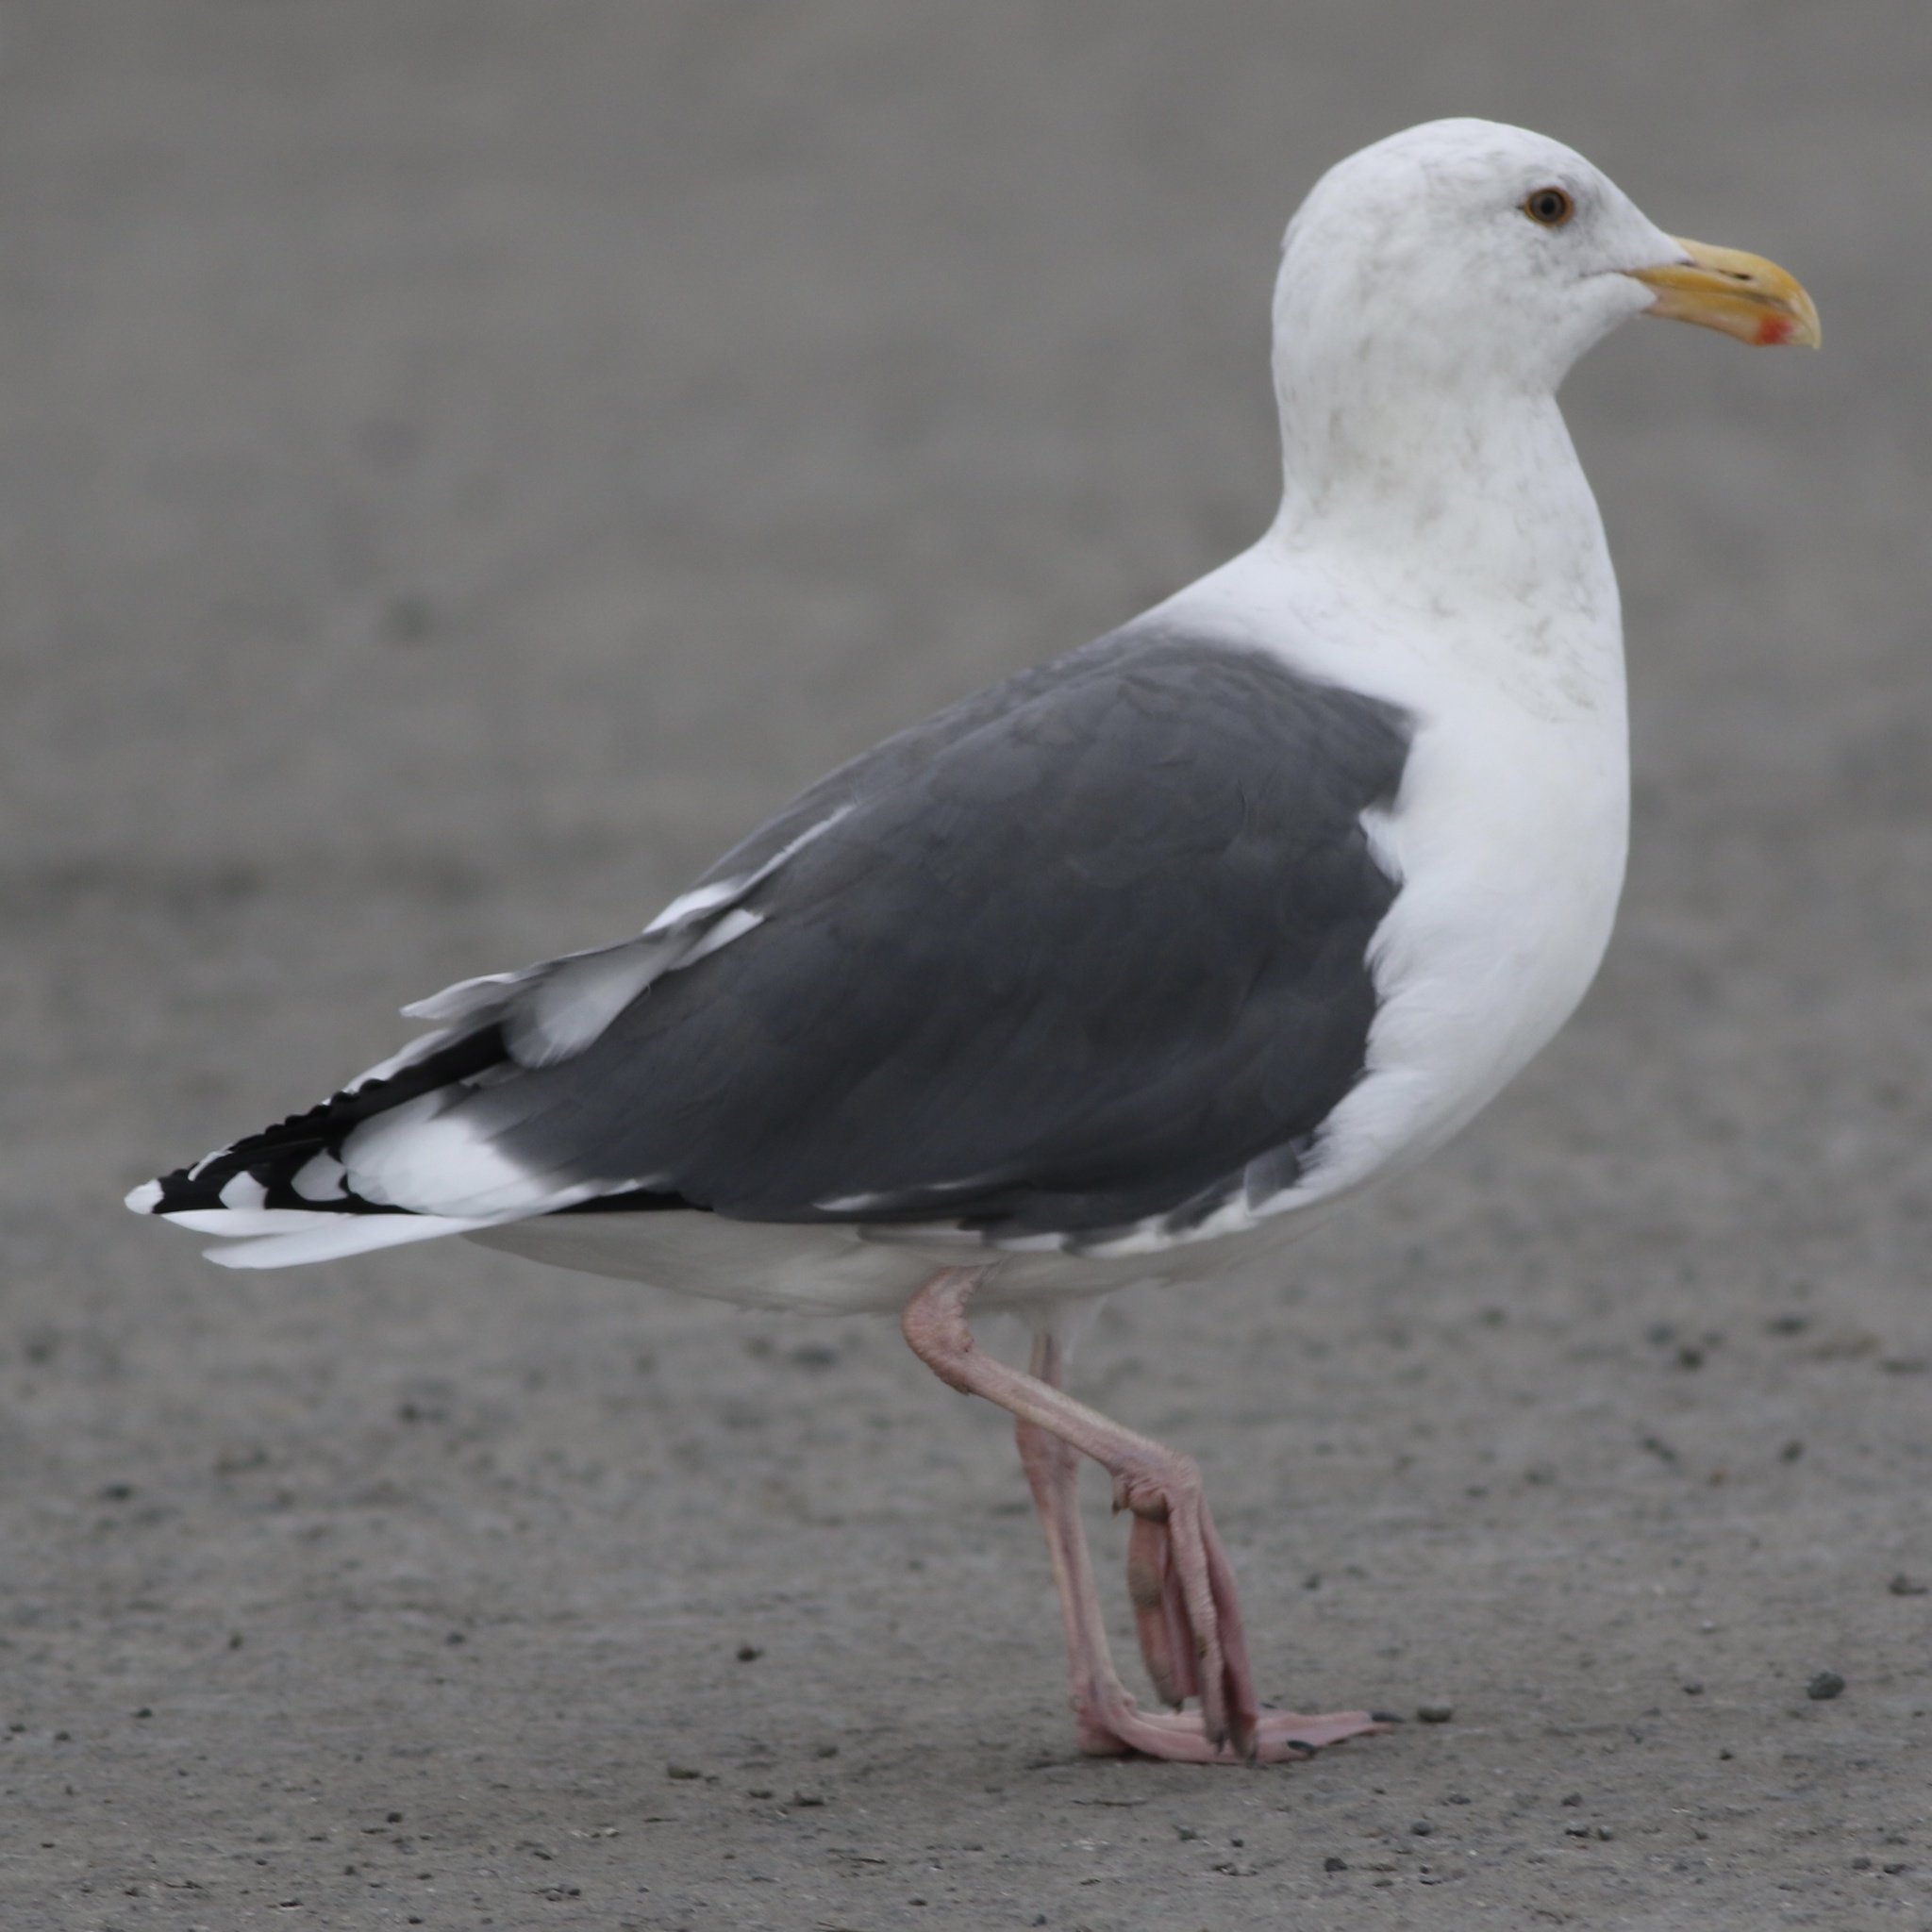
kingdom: Animalia
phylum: Chordata
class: Aves
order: Charadriiformes
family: Laridae
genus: Larus
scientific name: Larus occidentalis
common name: Western gull
